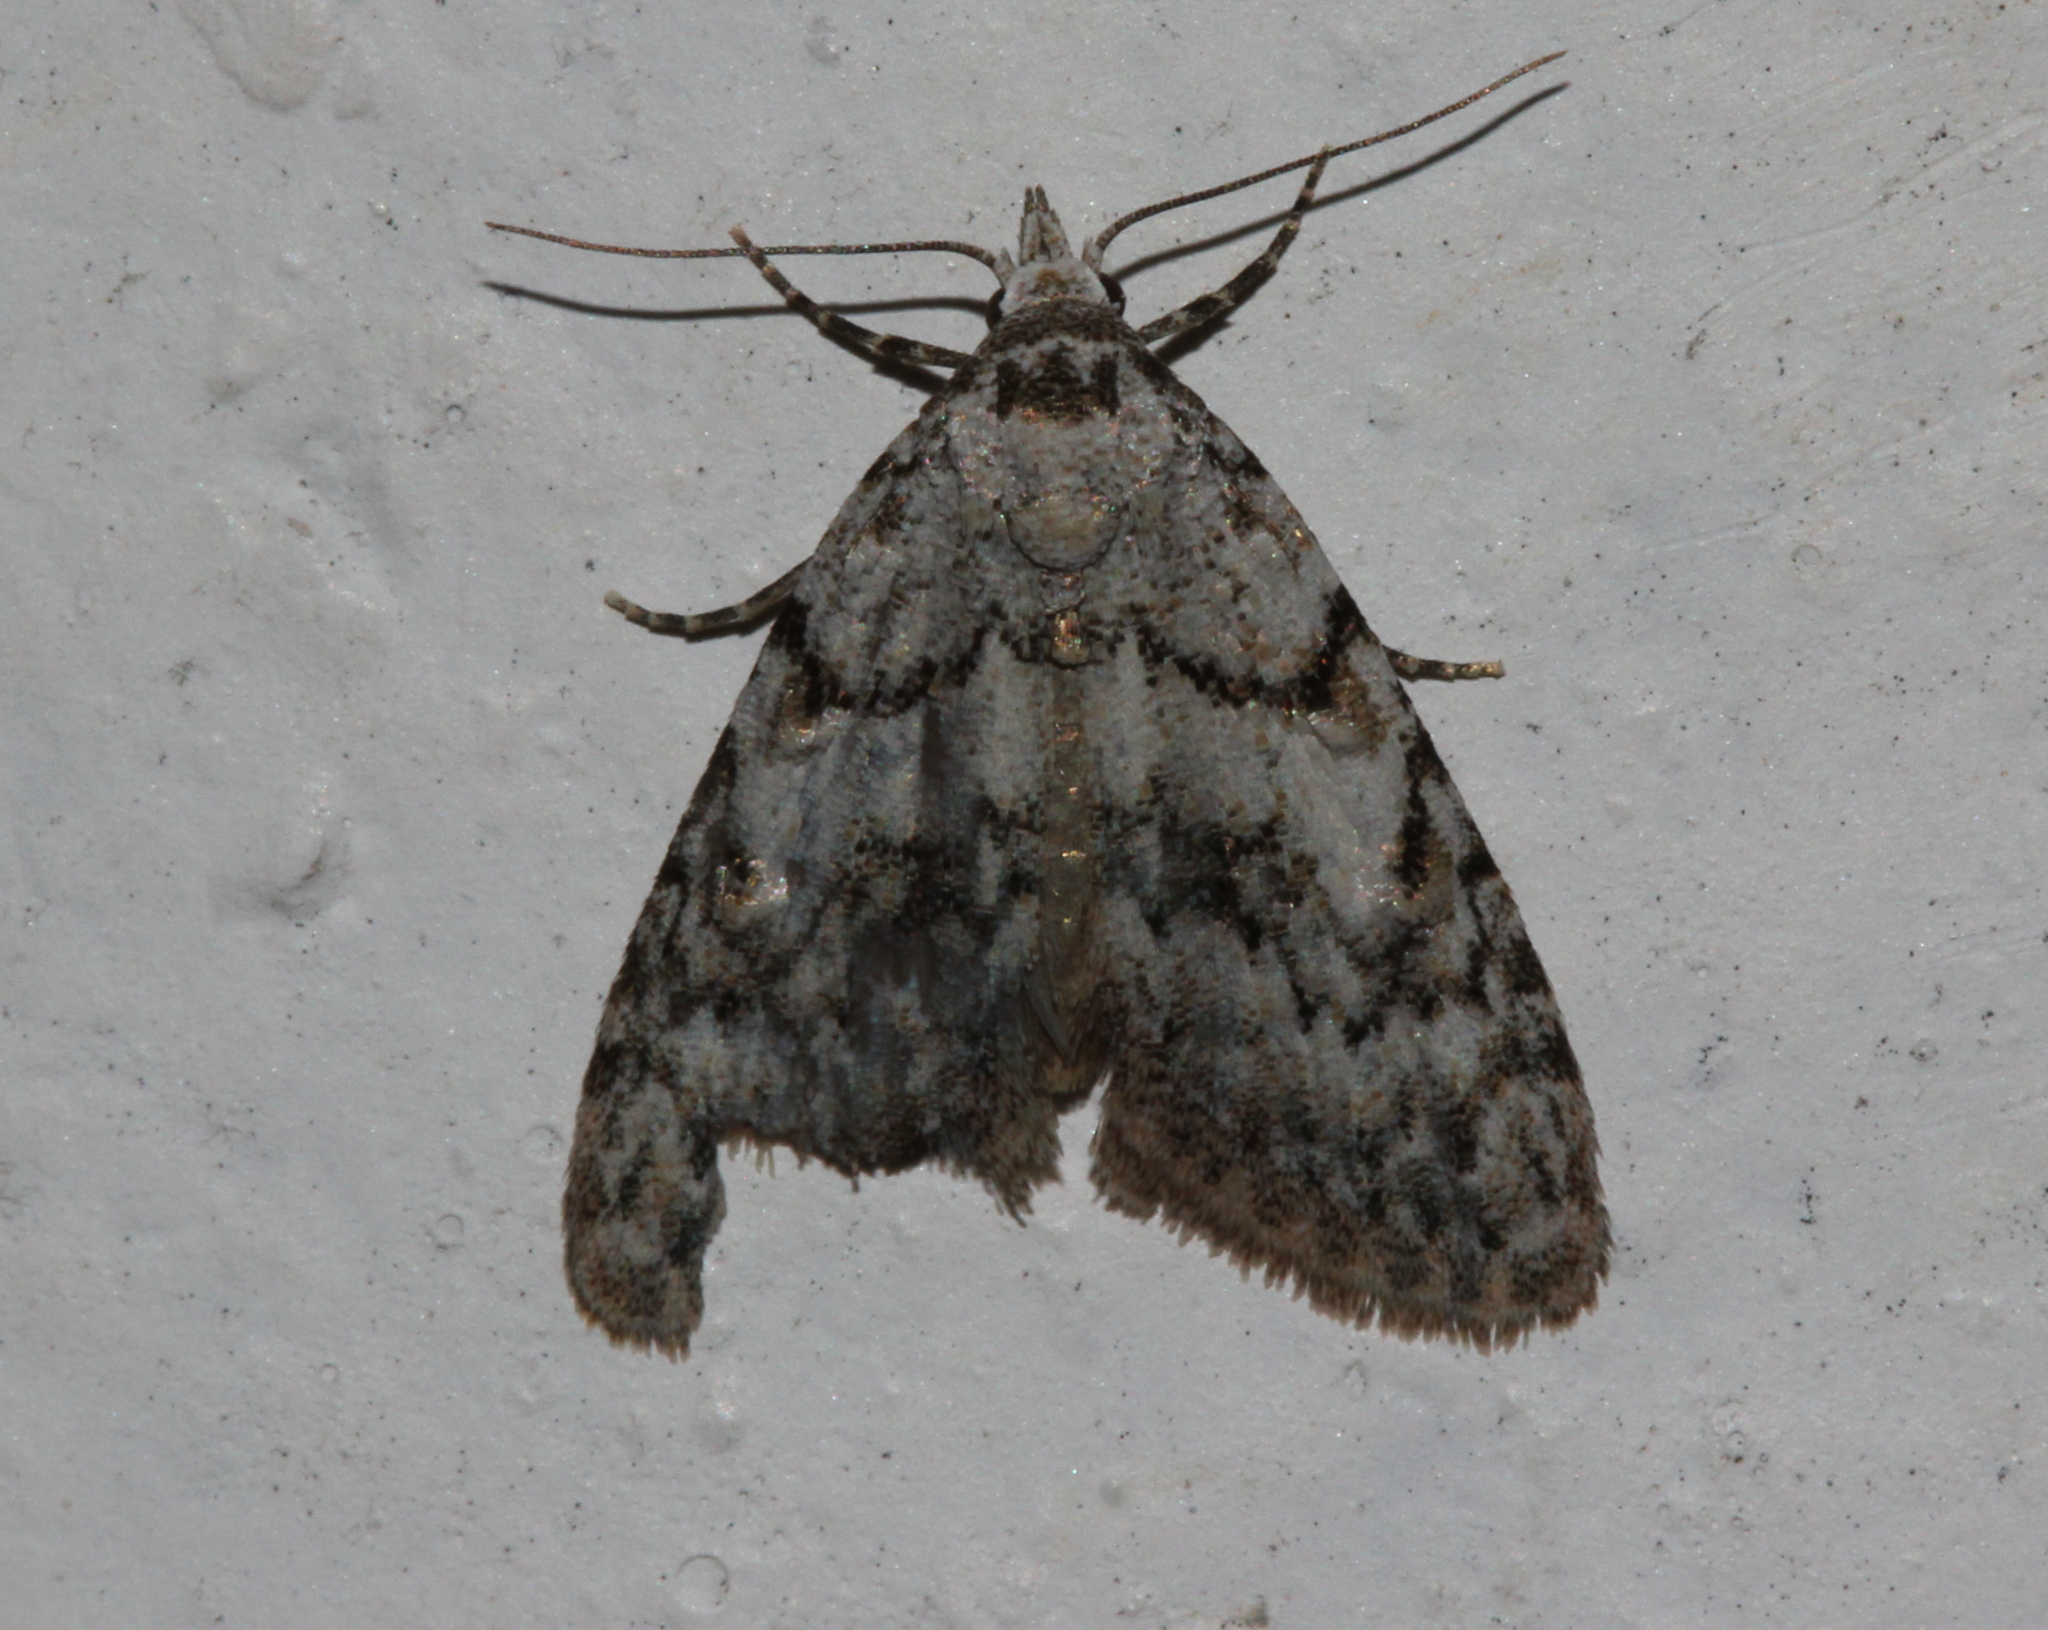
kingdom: Animalia
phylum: Arthropoda
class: Insecta
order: Lepidoptera
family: Nolidae
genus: Nola
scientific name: Nola cicatricalis
